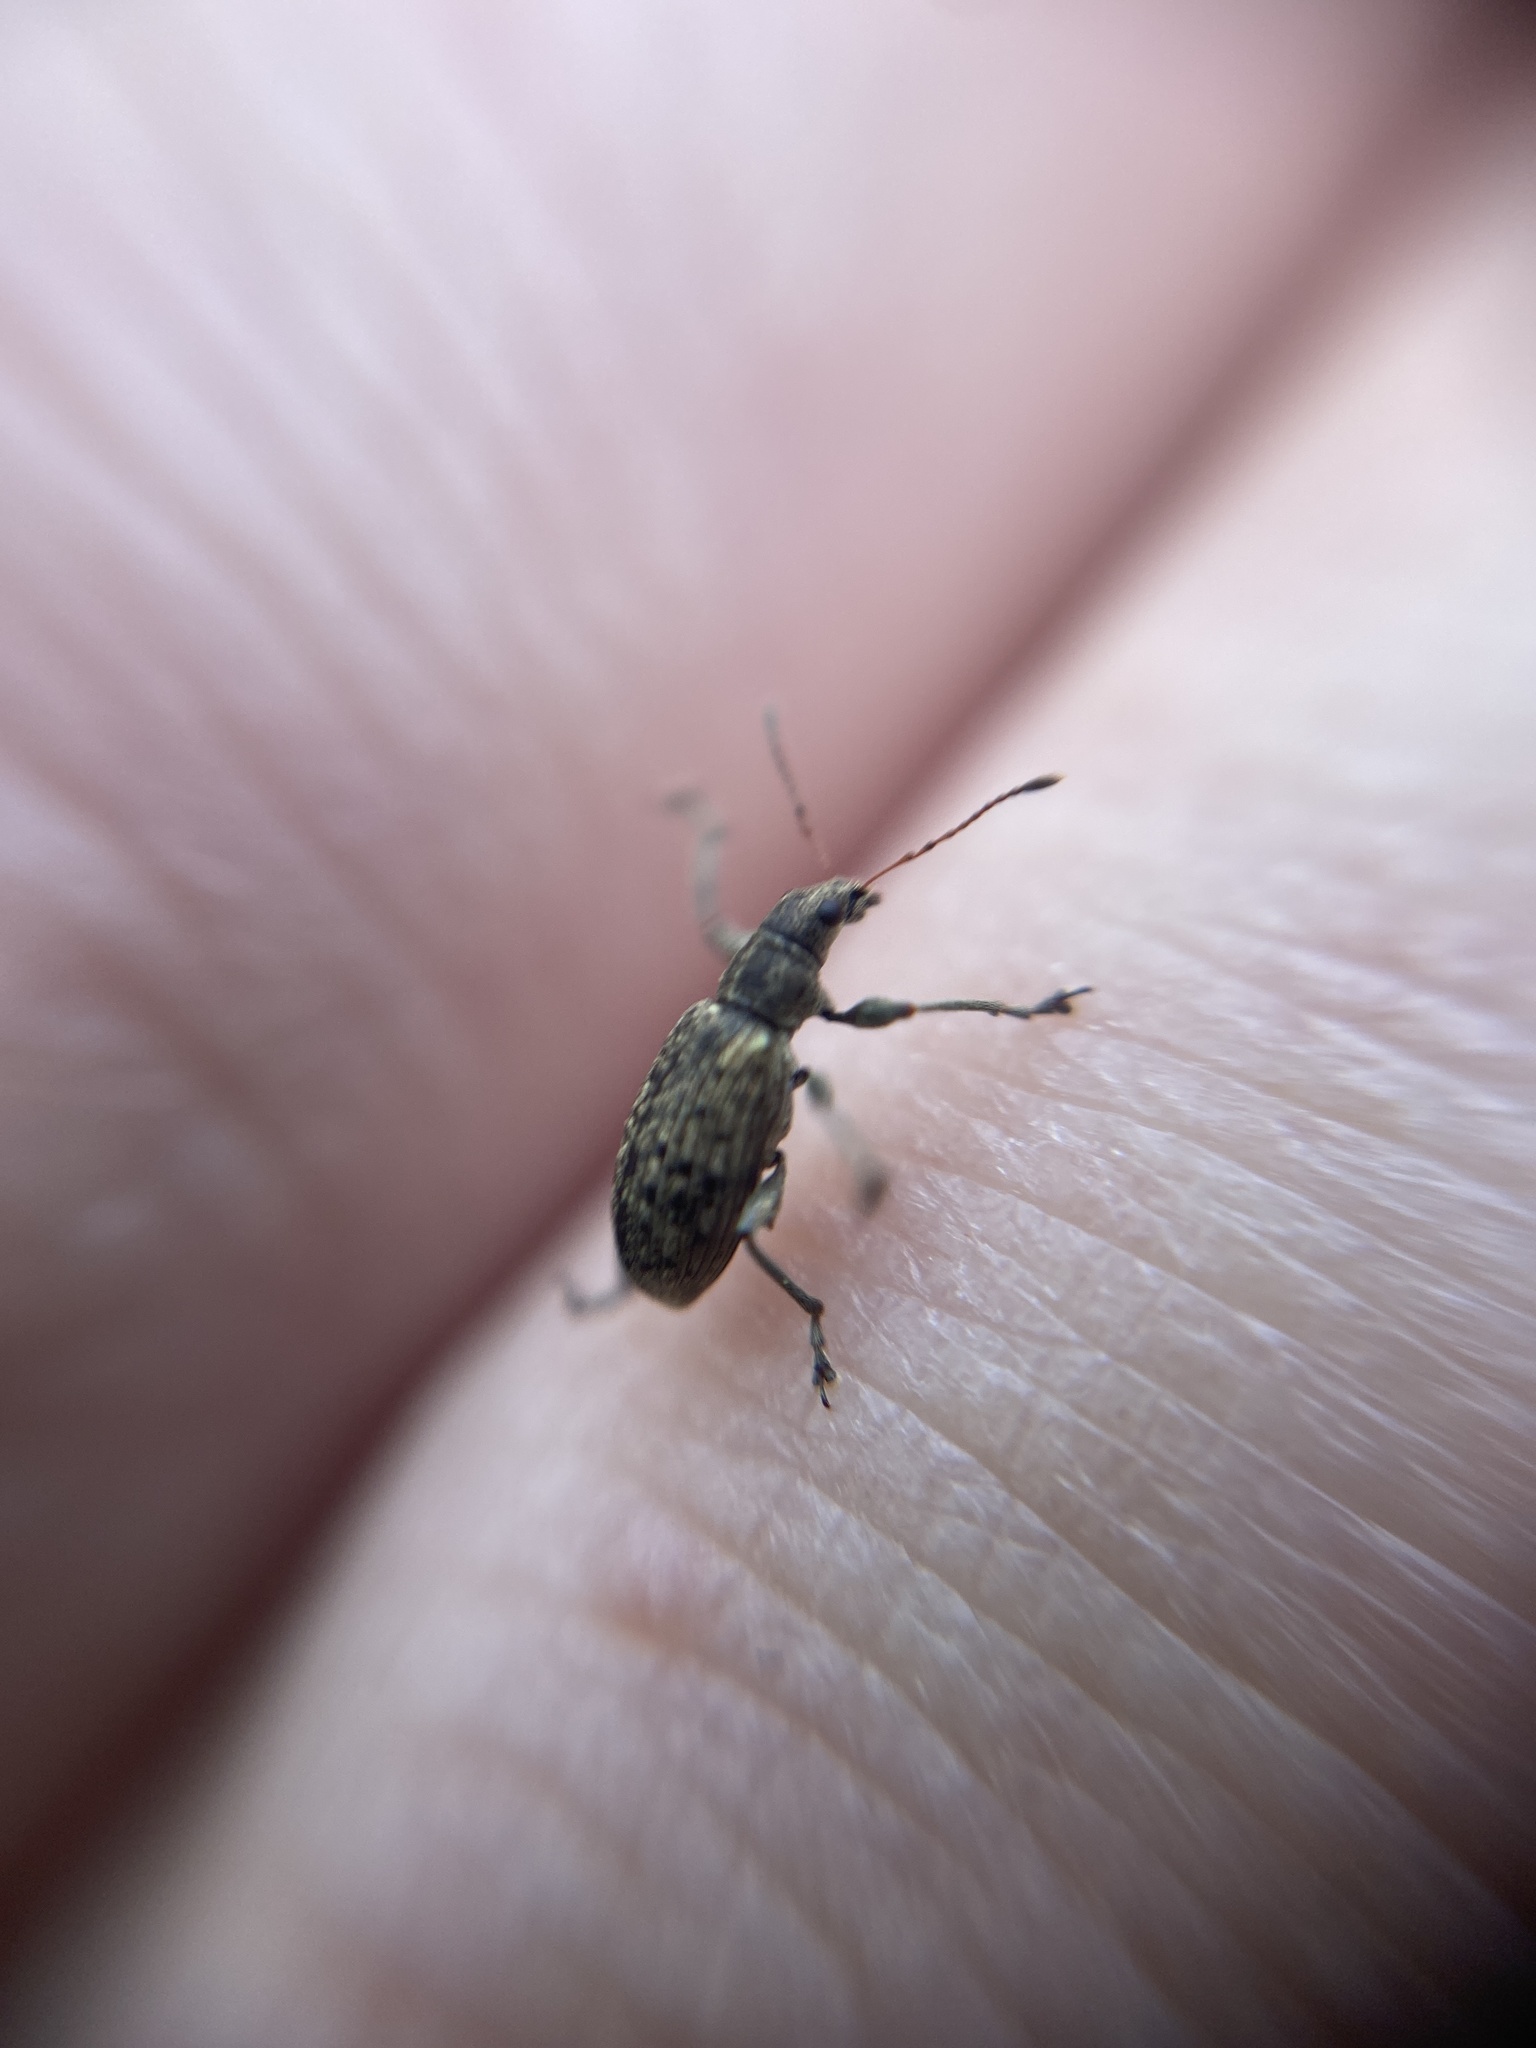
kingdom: Animalia
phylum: Arthropoda
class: Insecta
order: Coleoptera
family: Curculionidae
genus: Polydrusus
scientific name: Polydrusus cervinus
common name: Weevil
